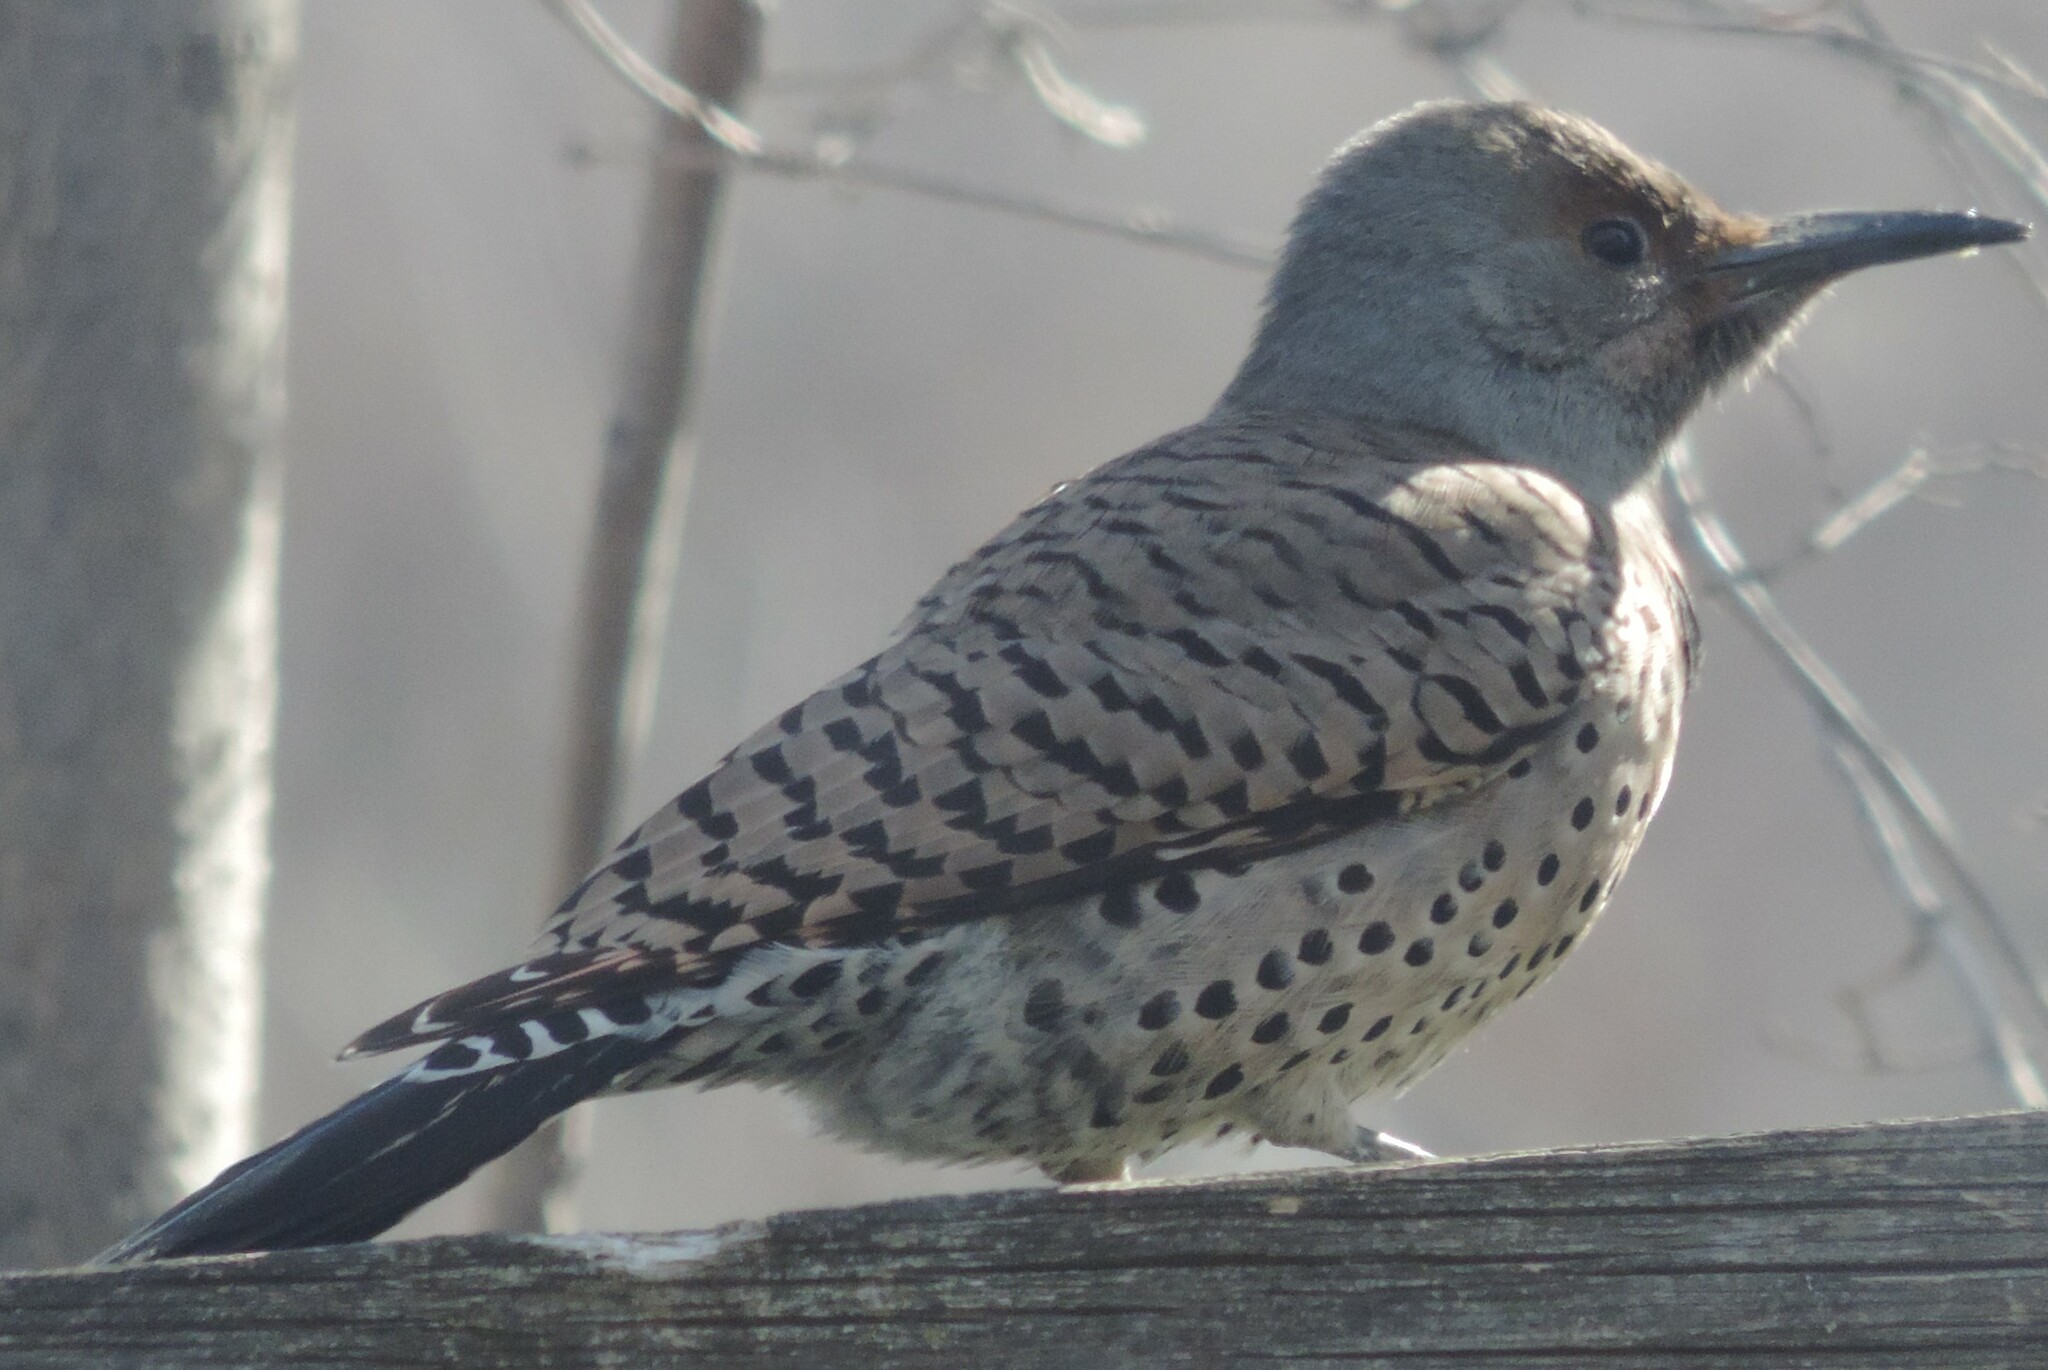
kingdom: Animalia
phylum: Chordata
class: Aves
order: Piciformes
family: Picidae
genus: Colaptes
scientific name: Colaptes
